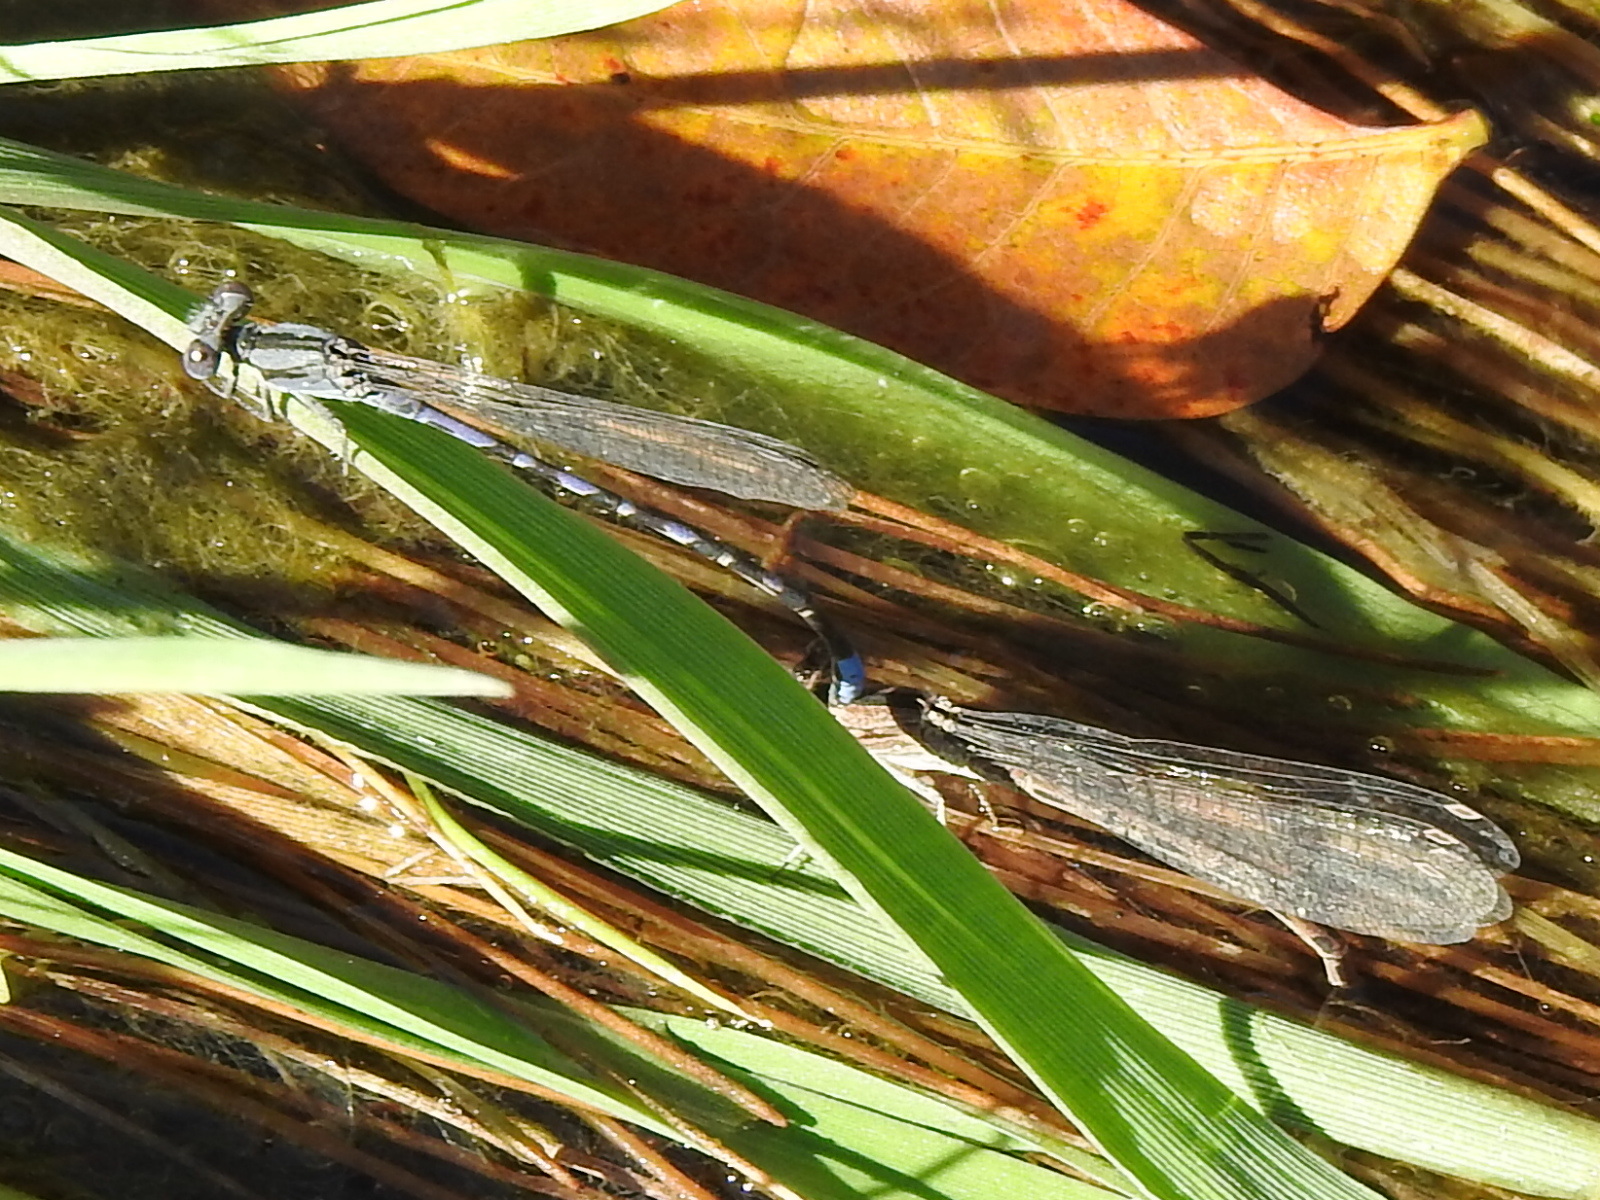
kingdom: Animalia
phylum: Arthropoda
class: Insecta
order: Odonata
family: Coenagrionidae
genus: Argia
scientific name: Argia immunda
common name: Kiowa dancer
